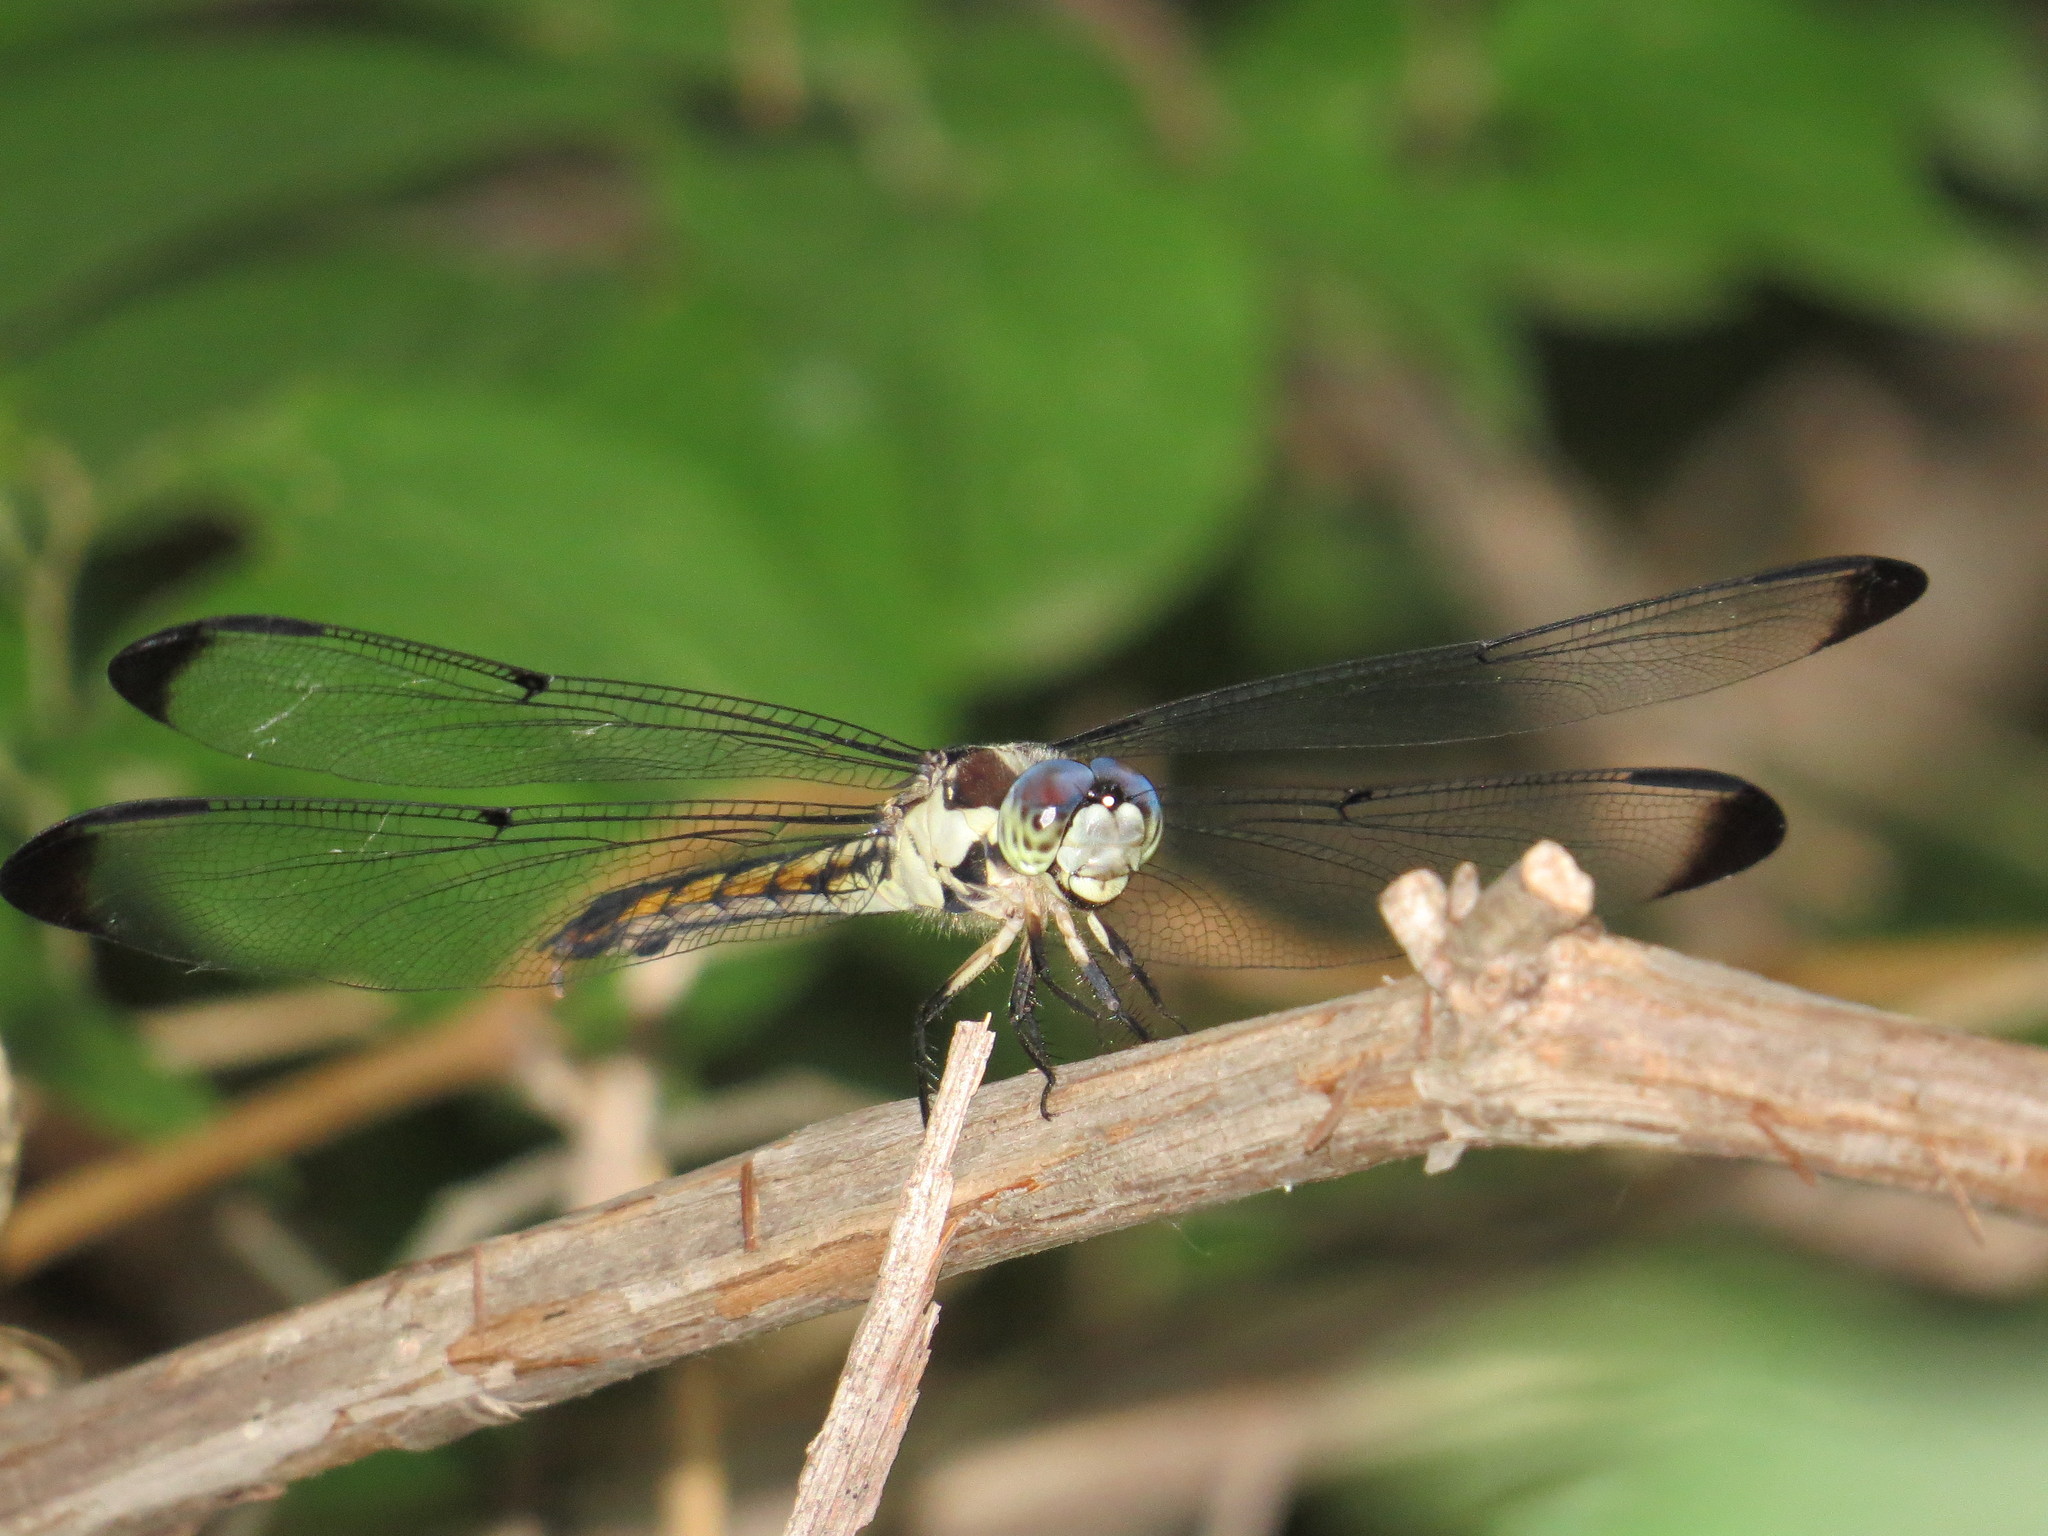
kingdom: Animalia
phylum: Arthropoda
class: Insecta
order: Odonata
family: Libellulidae
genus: Libellula
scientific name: Libellula vibrans
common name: Great blue skimmer
